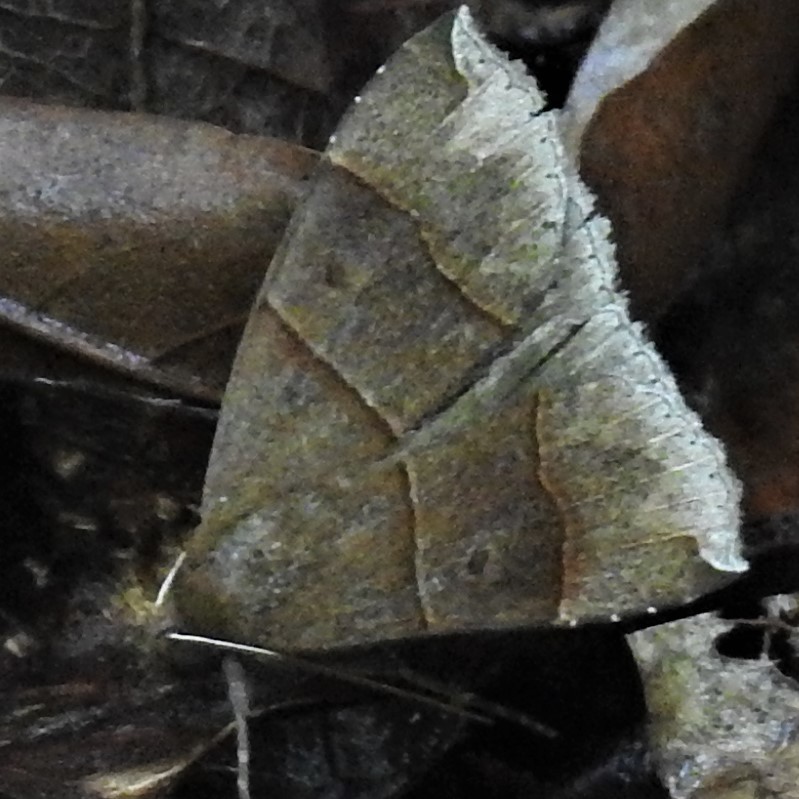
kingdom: Animalia
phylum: Arthropoda
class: Insecta
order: Lepidoptera
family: Erebidae
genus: Parallelia
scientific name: Parallelia bistriaris
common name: Maple looper moth
